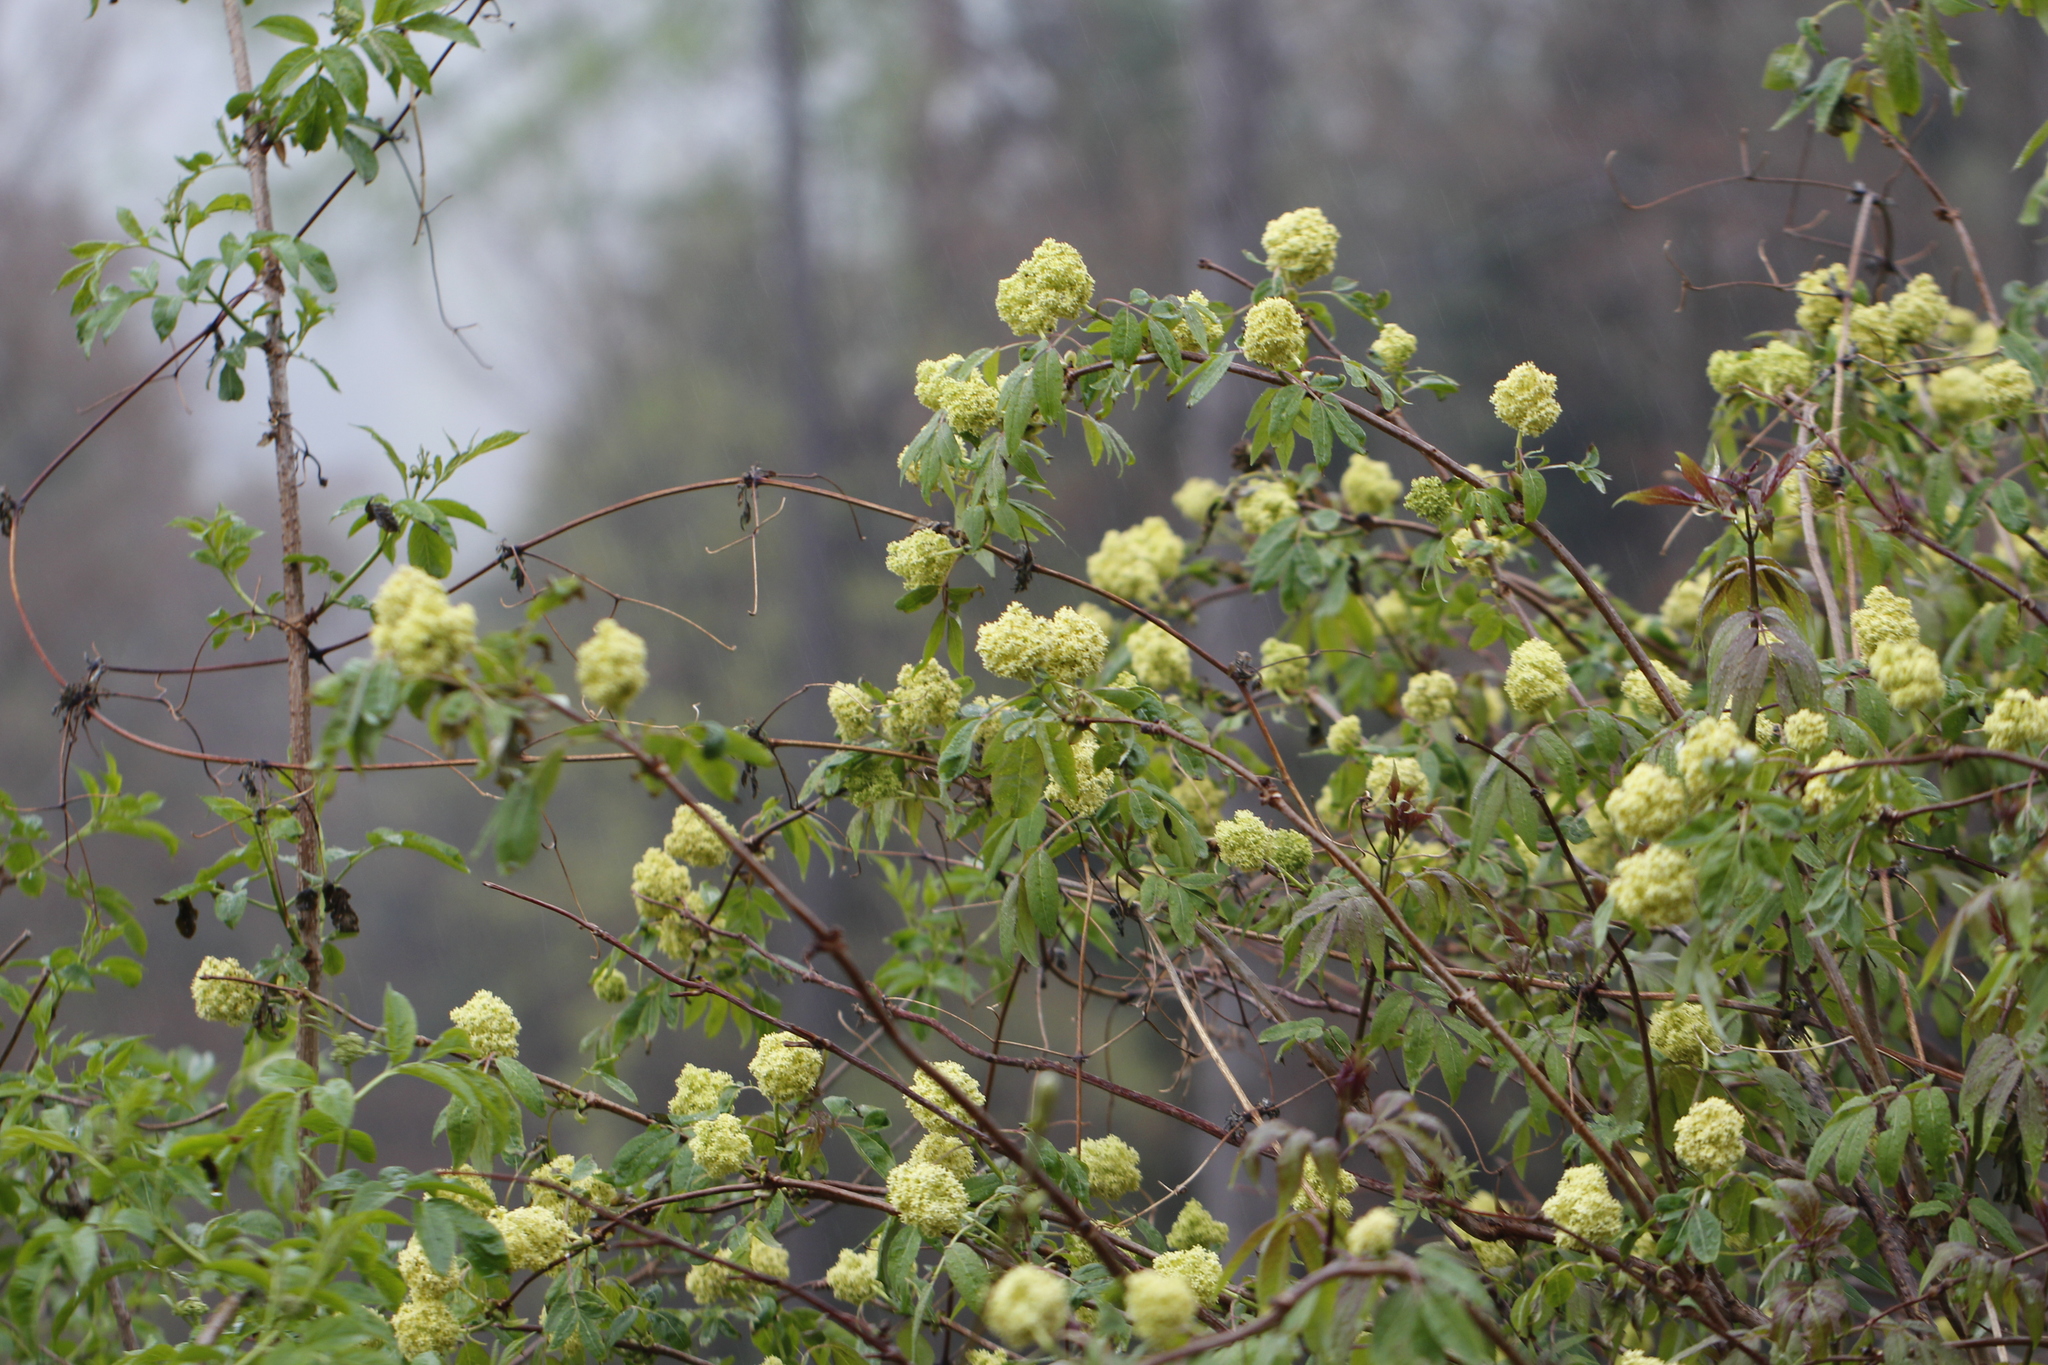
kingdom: Plantae
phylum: Tracheophyta
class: Magnoliopsida
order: Dipsacales
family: Viburnaceae
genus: Sambucus
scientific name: Sambucus racemosa
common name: Red-berried elder
